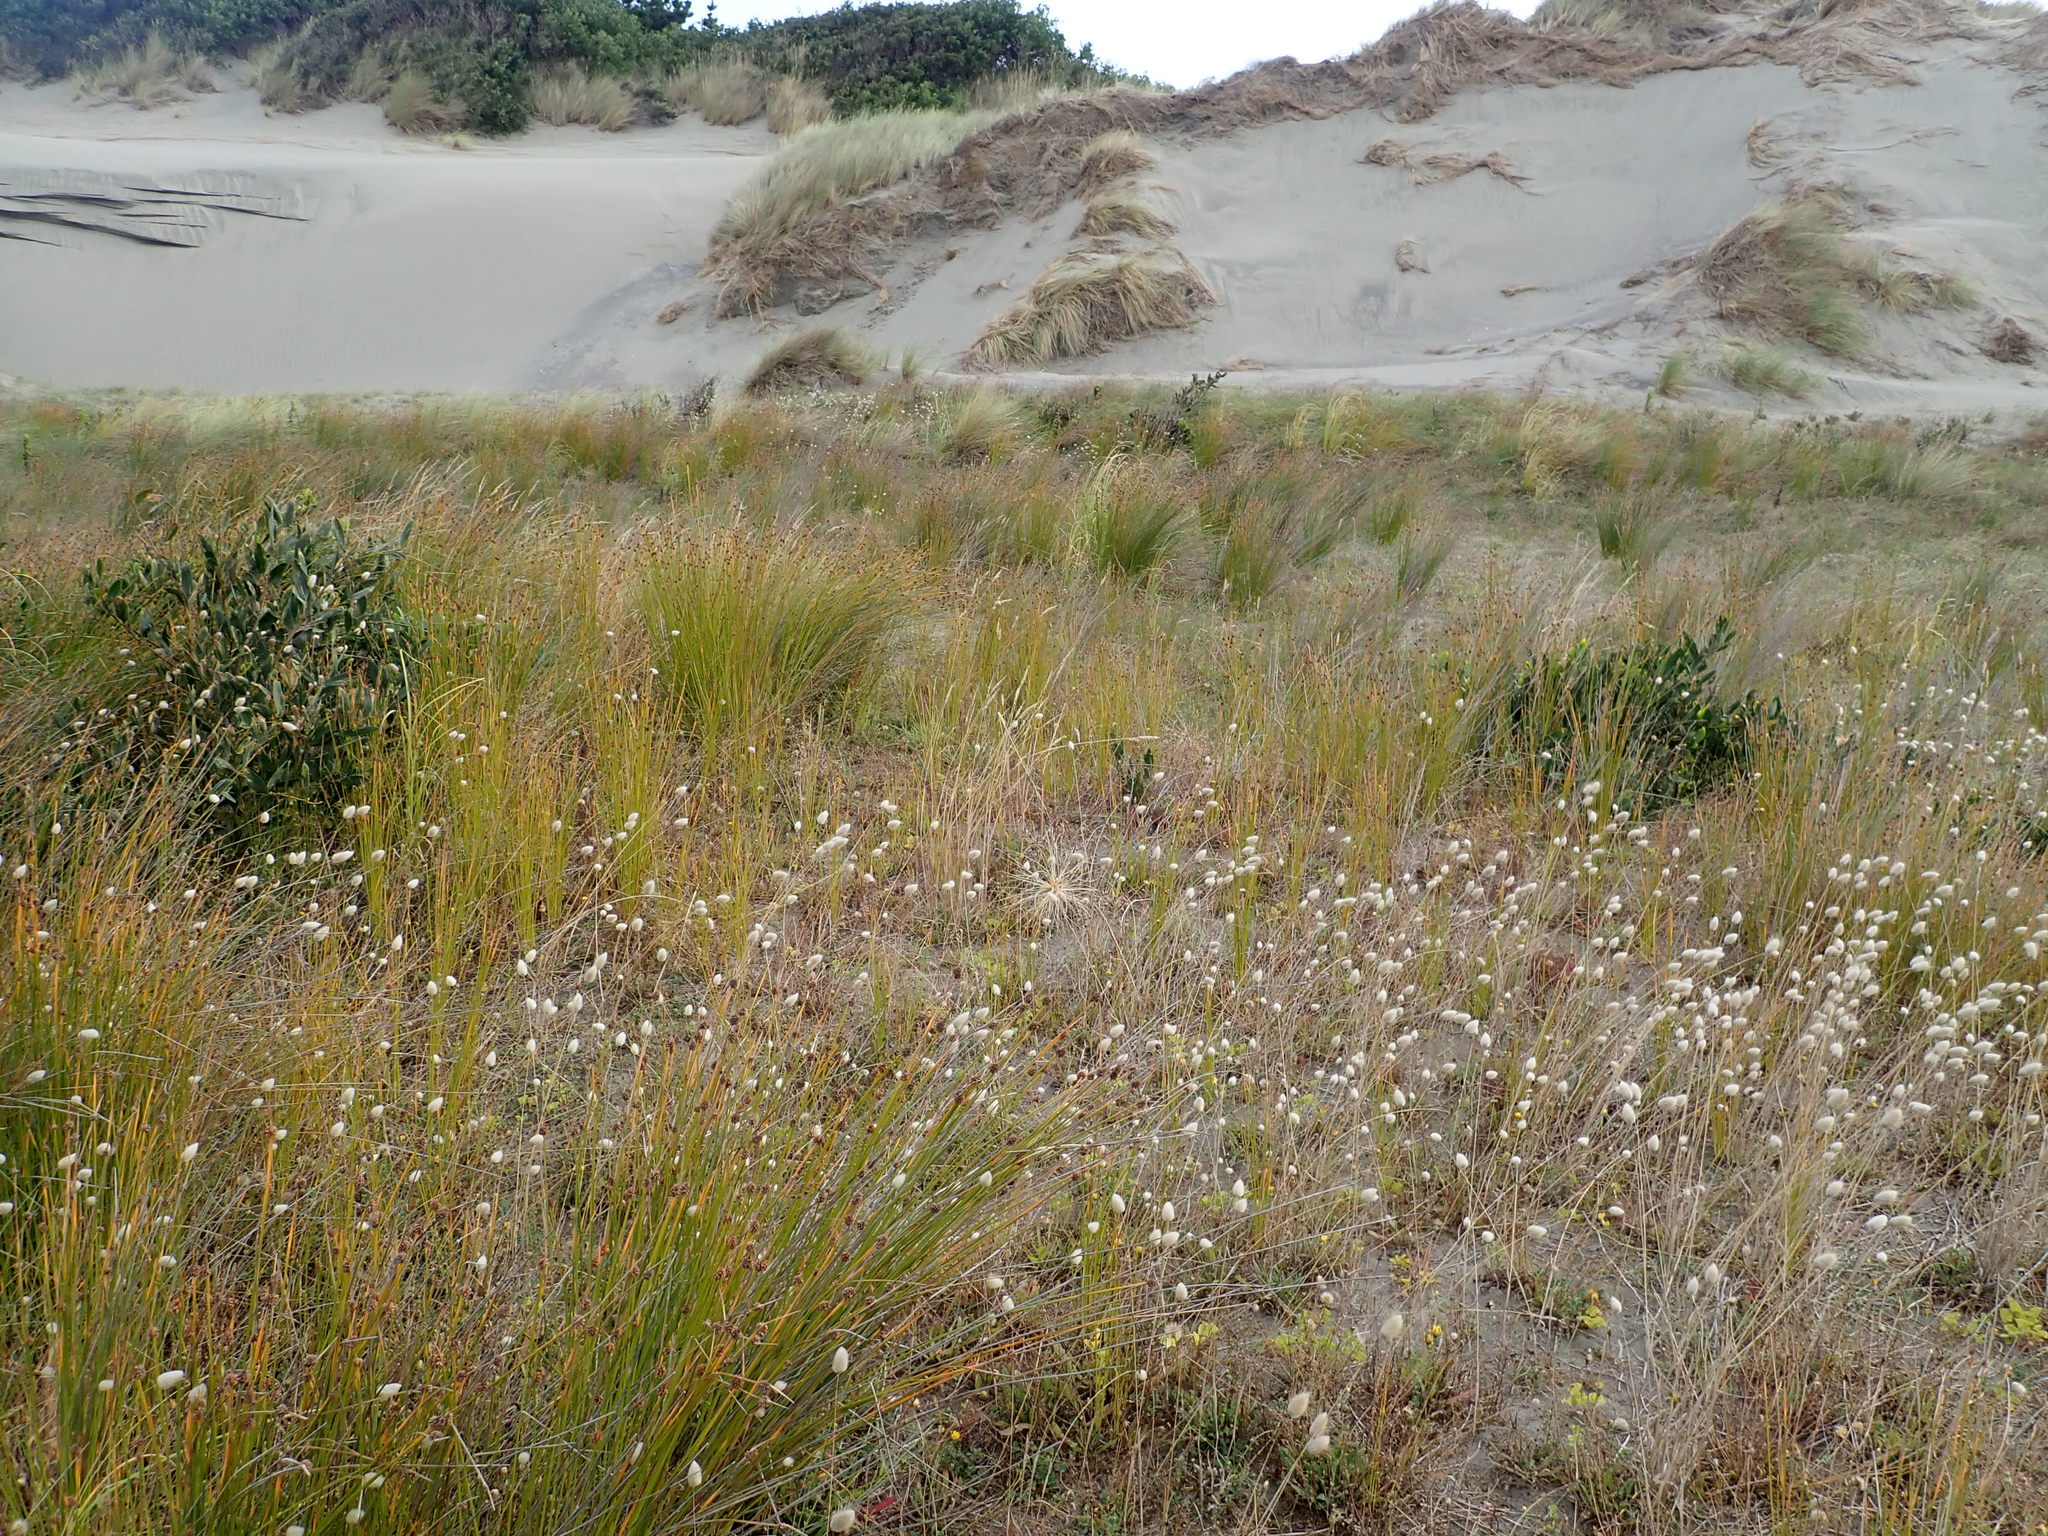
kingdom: Plantae
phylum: Tracheophyta
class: Magnoliopsida
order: Fabales
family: Fabaceae
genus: Acacia
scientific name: Acacia longifolia
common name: Sydney golden wattle
